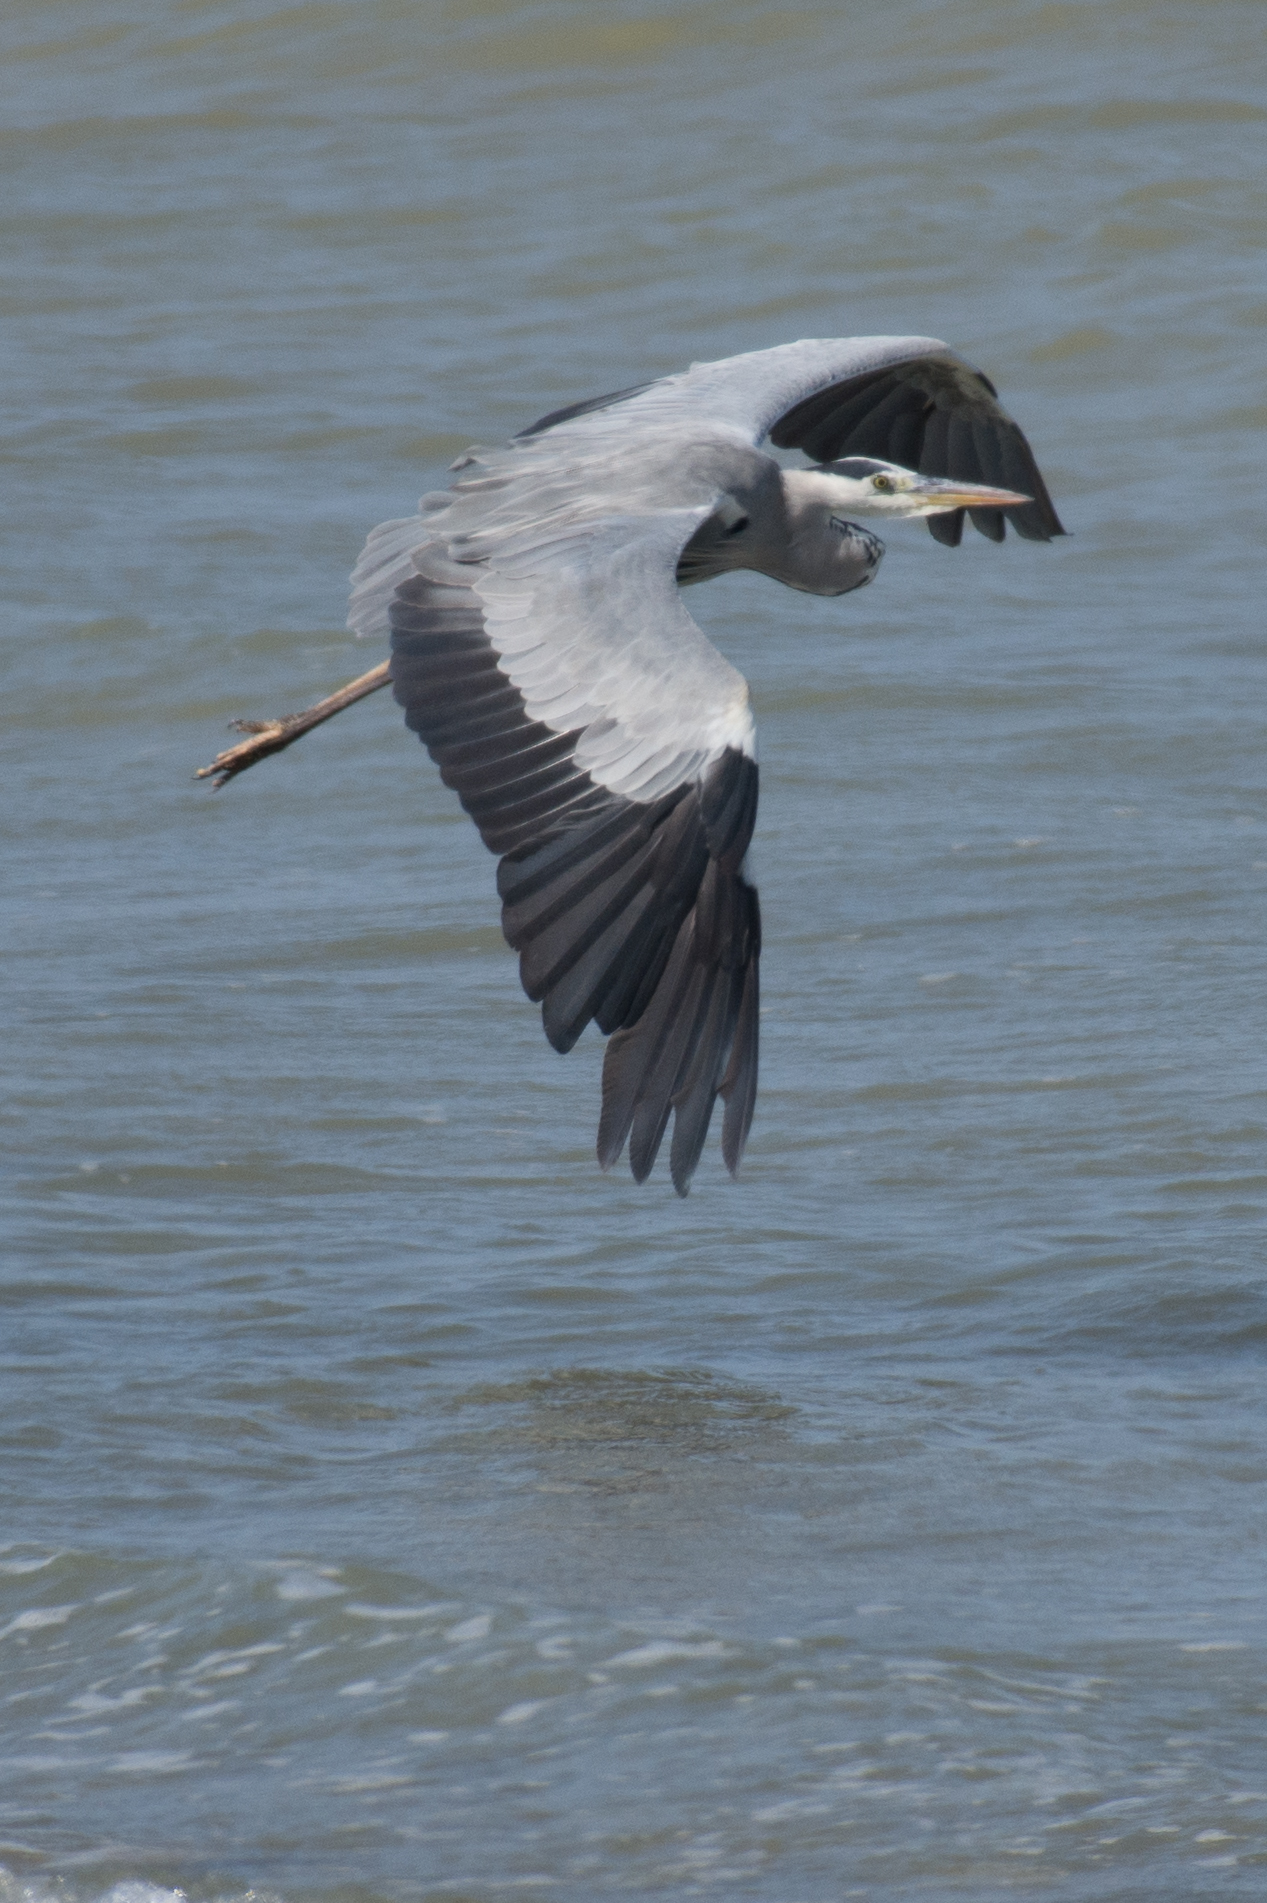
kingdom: Animalia
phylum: Chordata
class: Aves
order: Pelecaniformes
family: Ardeidae
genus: Ardea
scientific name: Ardea cinerea
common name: Grey heron
